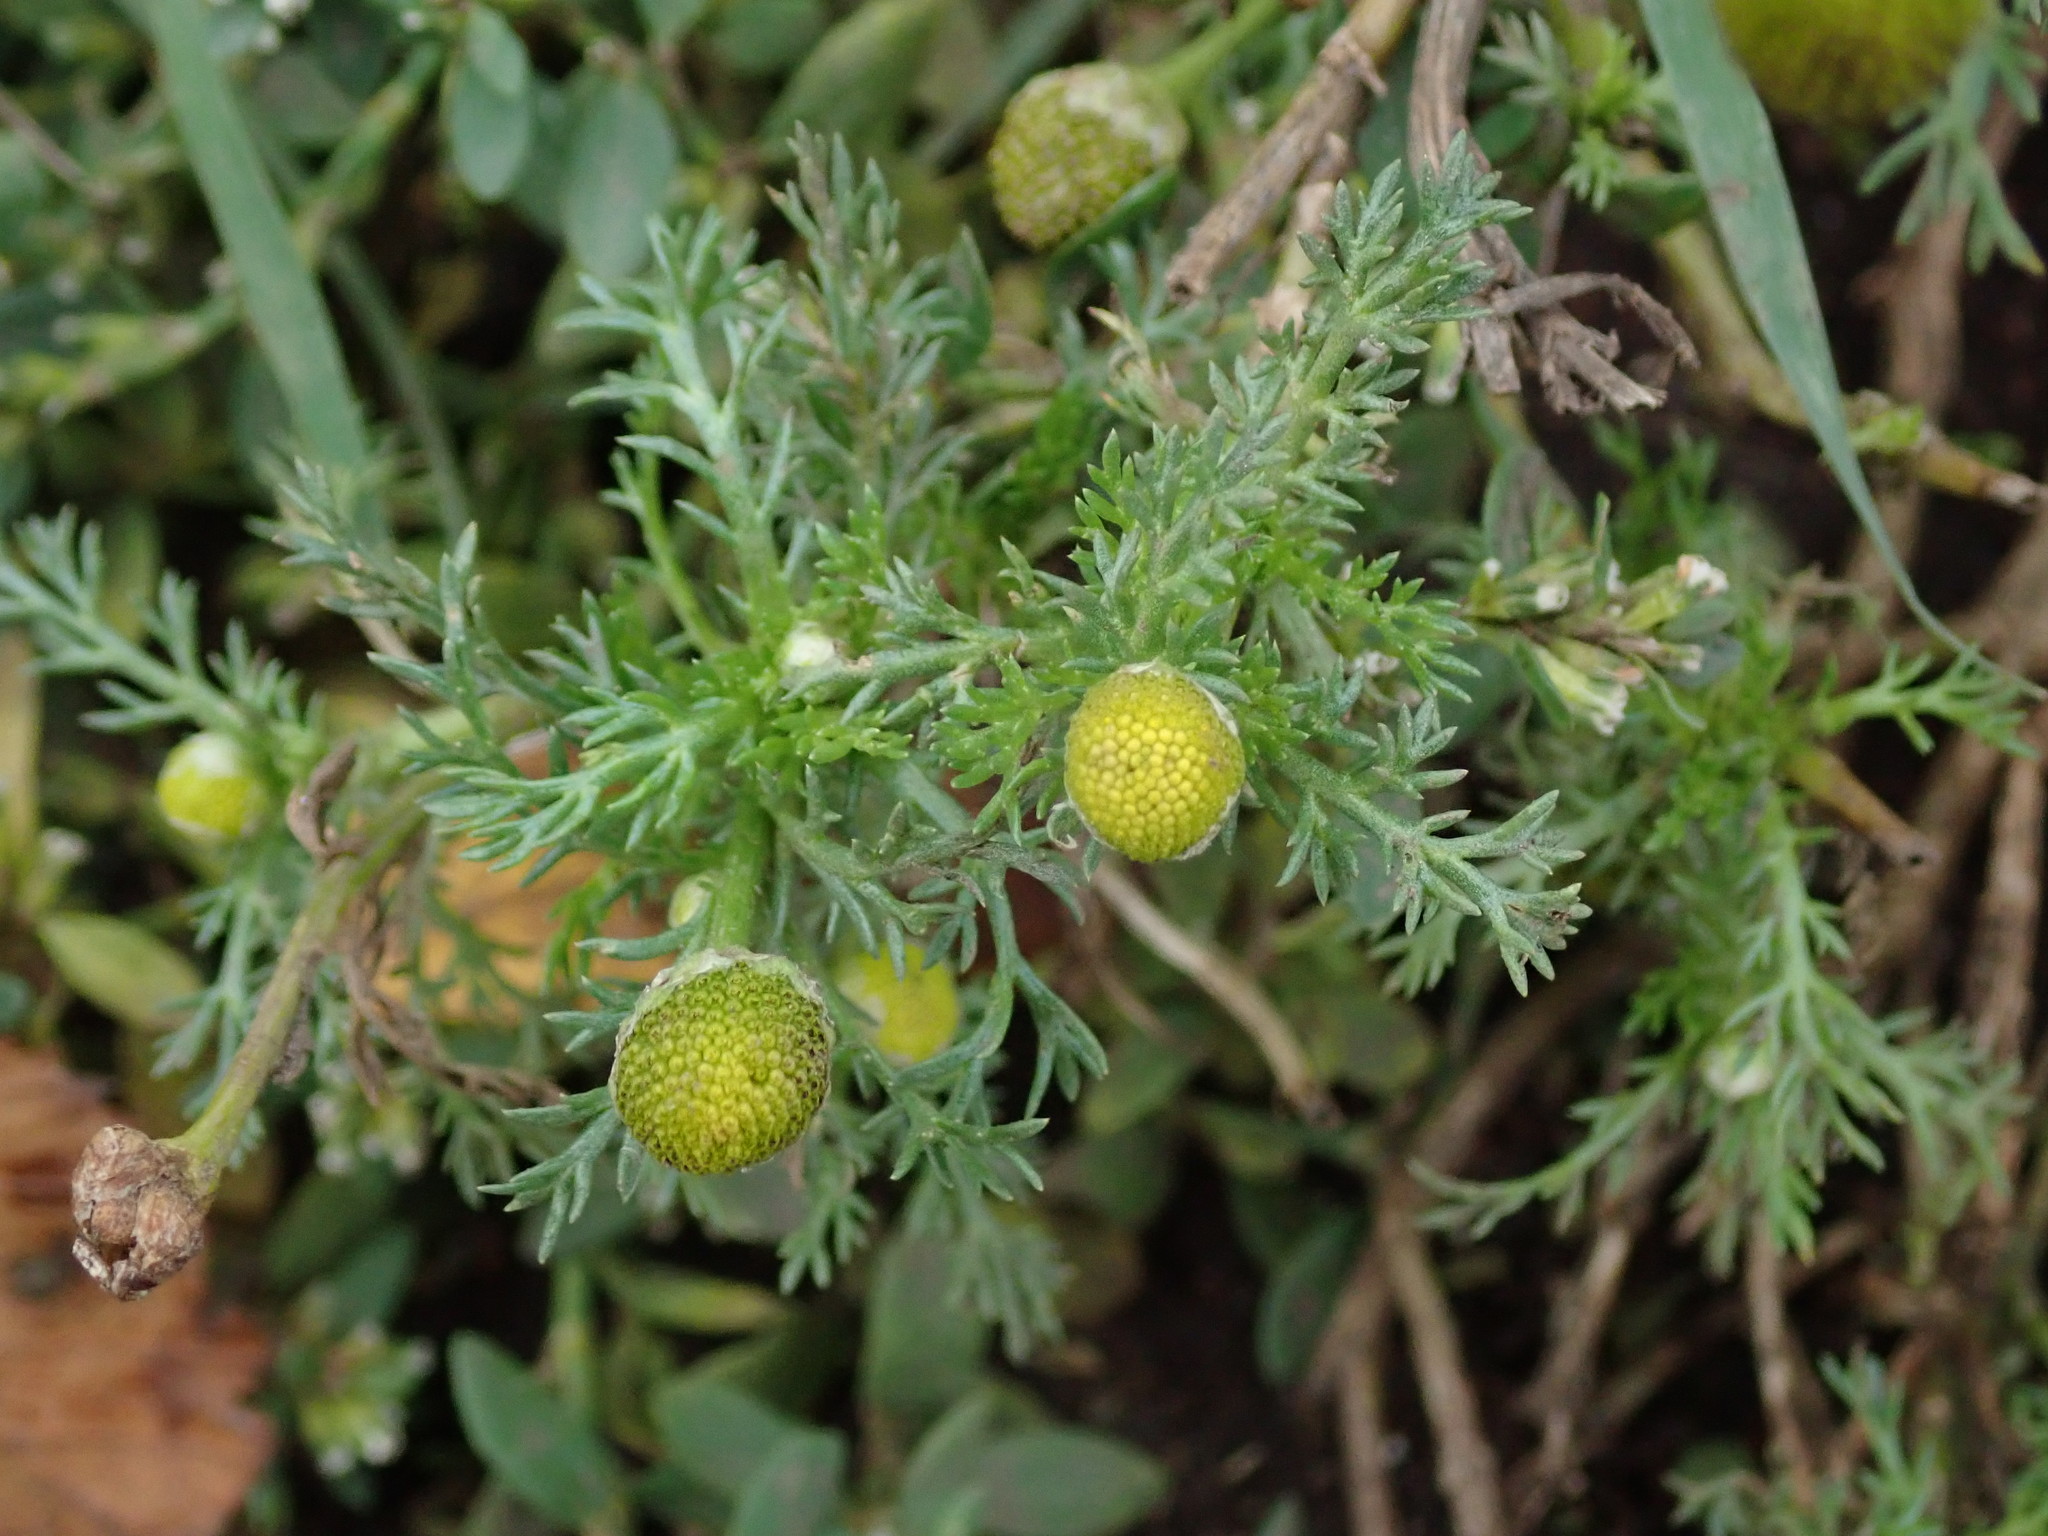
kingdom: Plantae
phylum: Tracheophyta
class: Magnoliopsida
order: Asterales
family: Asteraceae
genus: Matricaria
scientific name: Matricaria discoidea
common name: Disc mayweed
